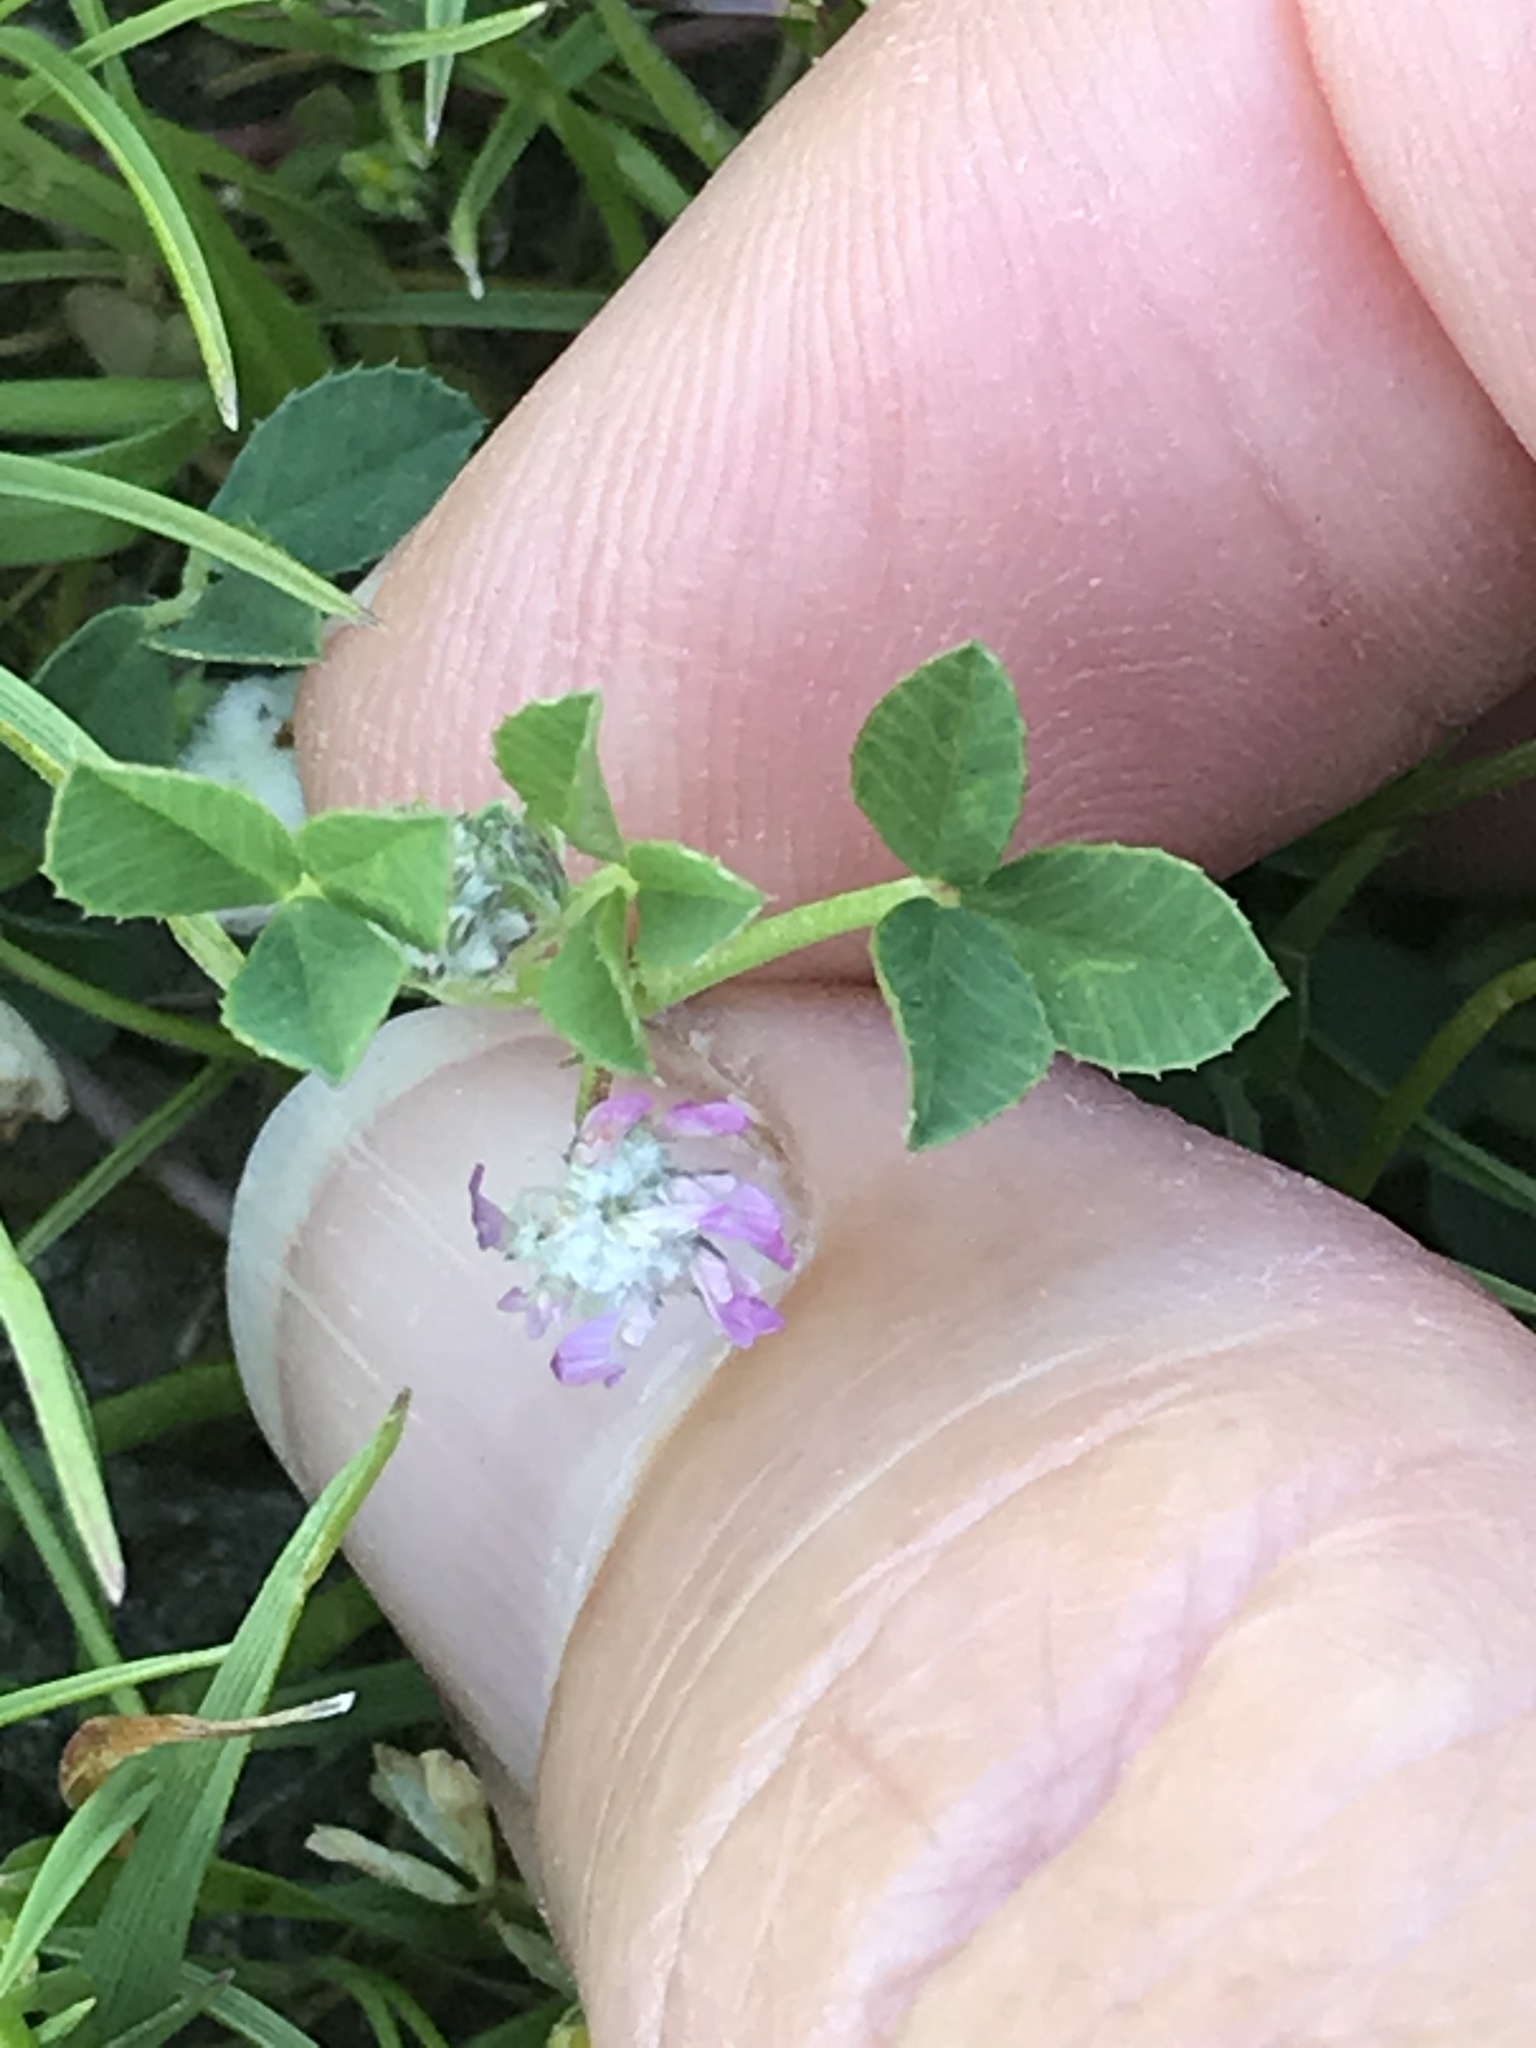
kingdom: Plantae
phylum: Tracheophyta
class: Magnoliopsida
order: Fabales
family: Fabaceae
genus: Trifolium
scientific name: Trifolium tomentosum
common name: Woolly clover
